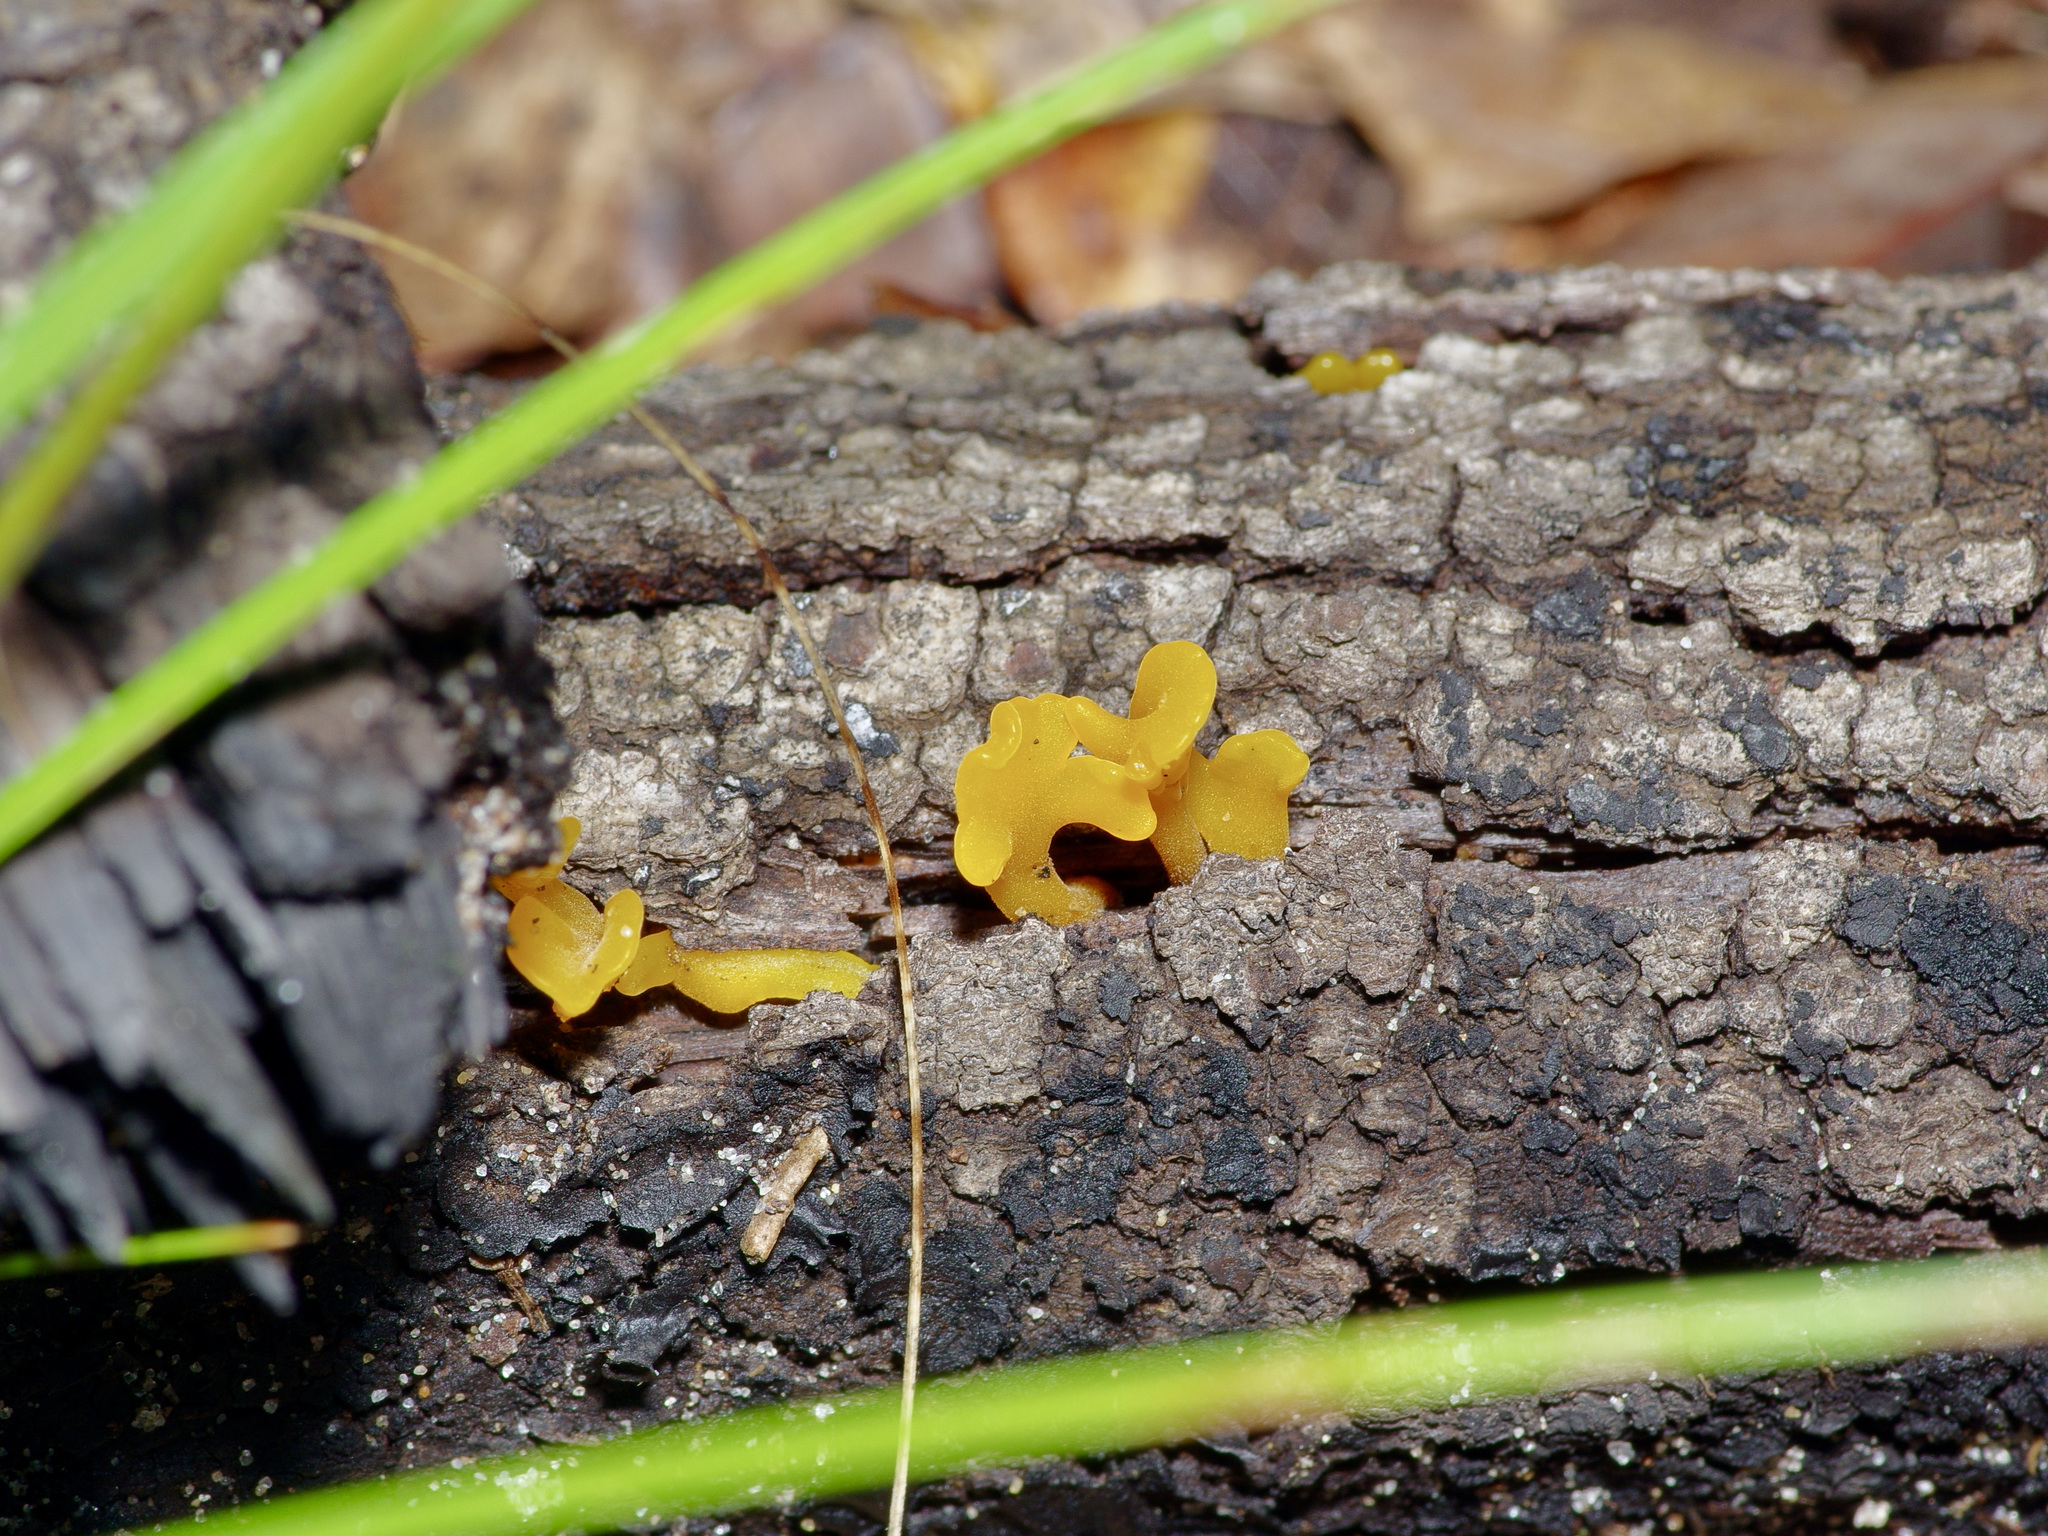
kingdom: Fungi
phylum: Basidiomycota
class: Dacrymycetes
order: Dacrymycetales
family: Dacrymycetaceae
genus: Dacrymyces
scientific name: Dacrymyces spathularius
